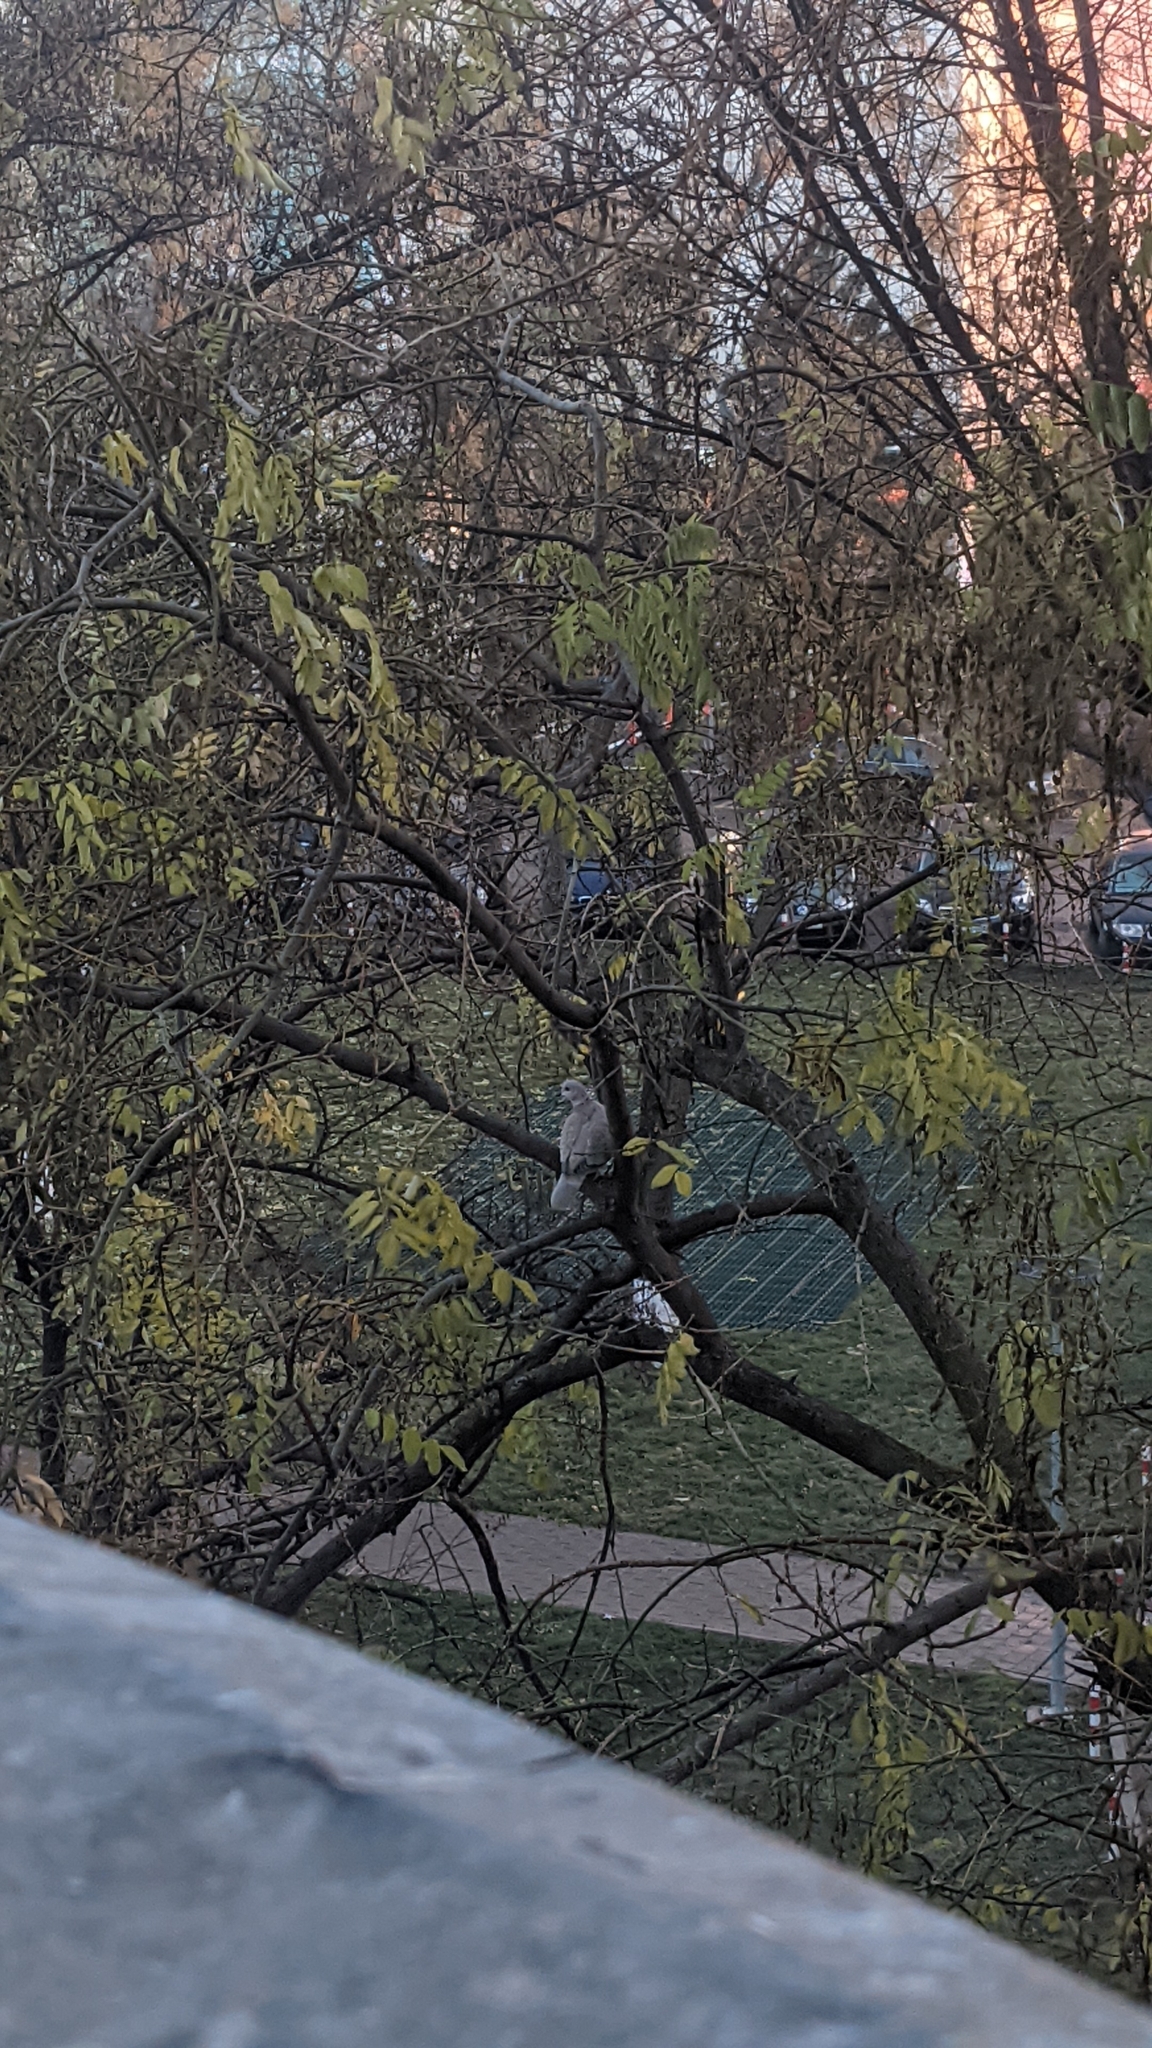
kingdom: Animalia
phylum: Chordata
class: Aves
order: Columbiformes
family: Columbidae
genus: Streptopelia
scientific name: Streptopelia decaocto
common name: Eurasian collared dove
